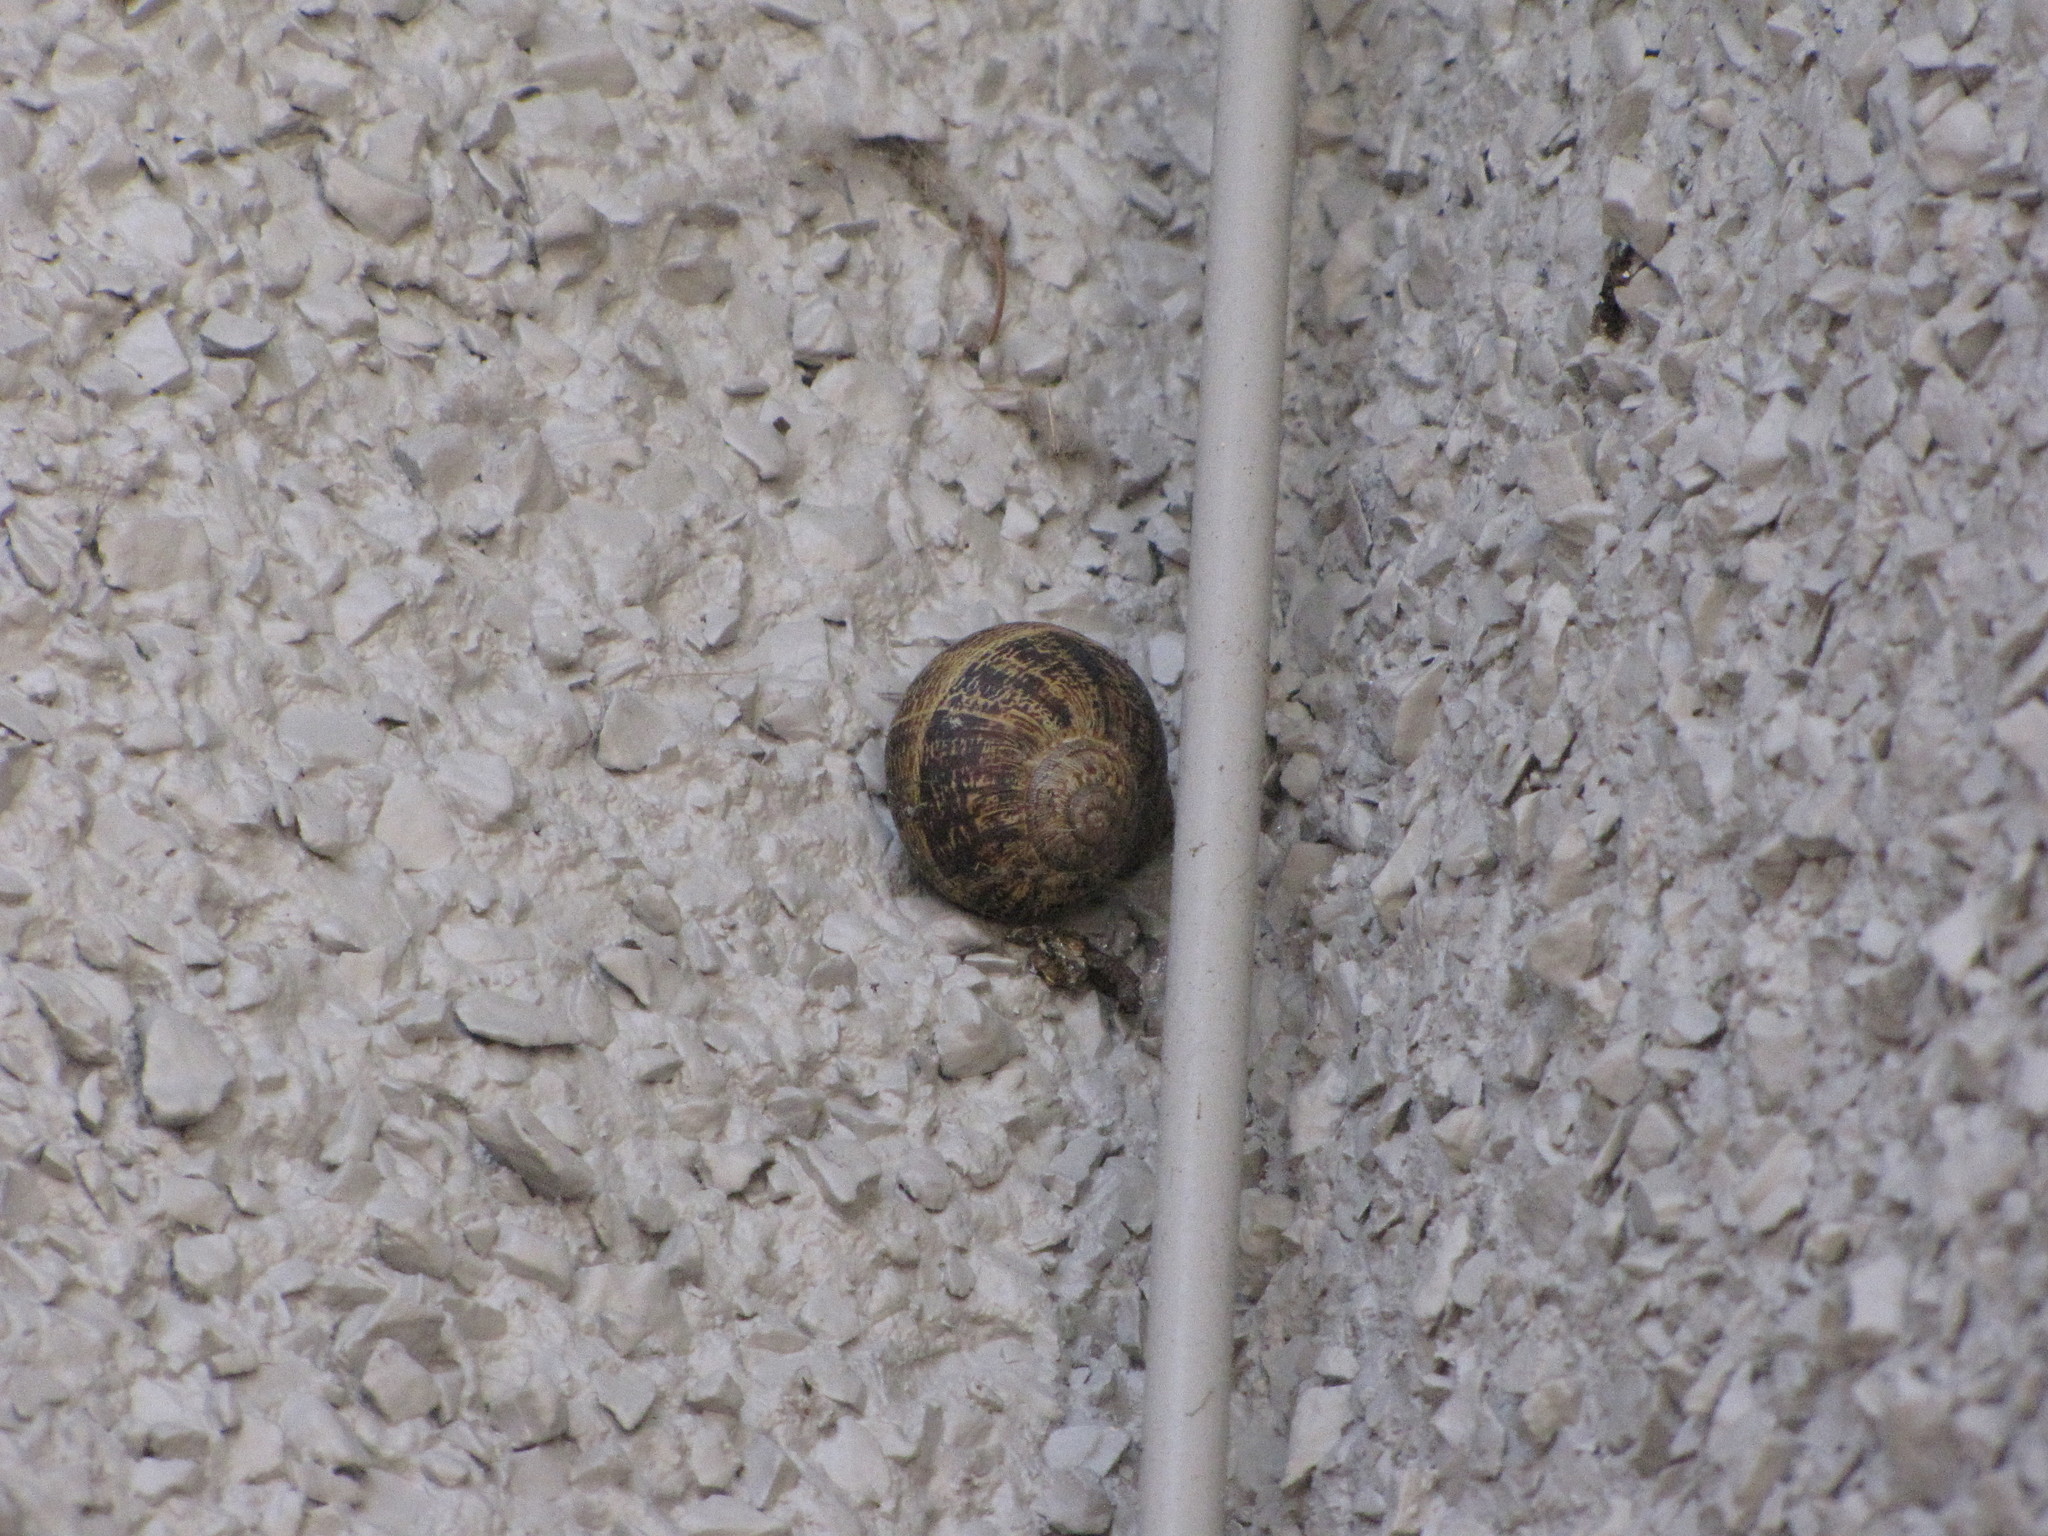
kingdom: Animalia
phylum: Mollusca
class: Gastropoda
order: Stylommatophora
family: Helicidae
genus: Cornu
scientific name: Cornu aspersum
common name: Brown garden snail
